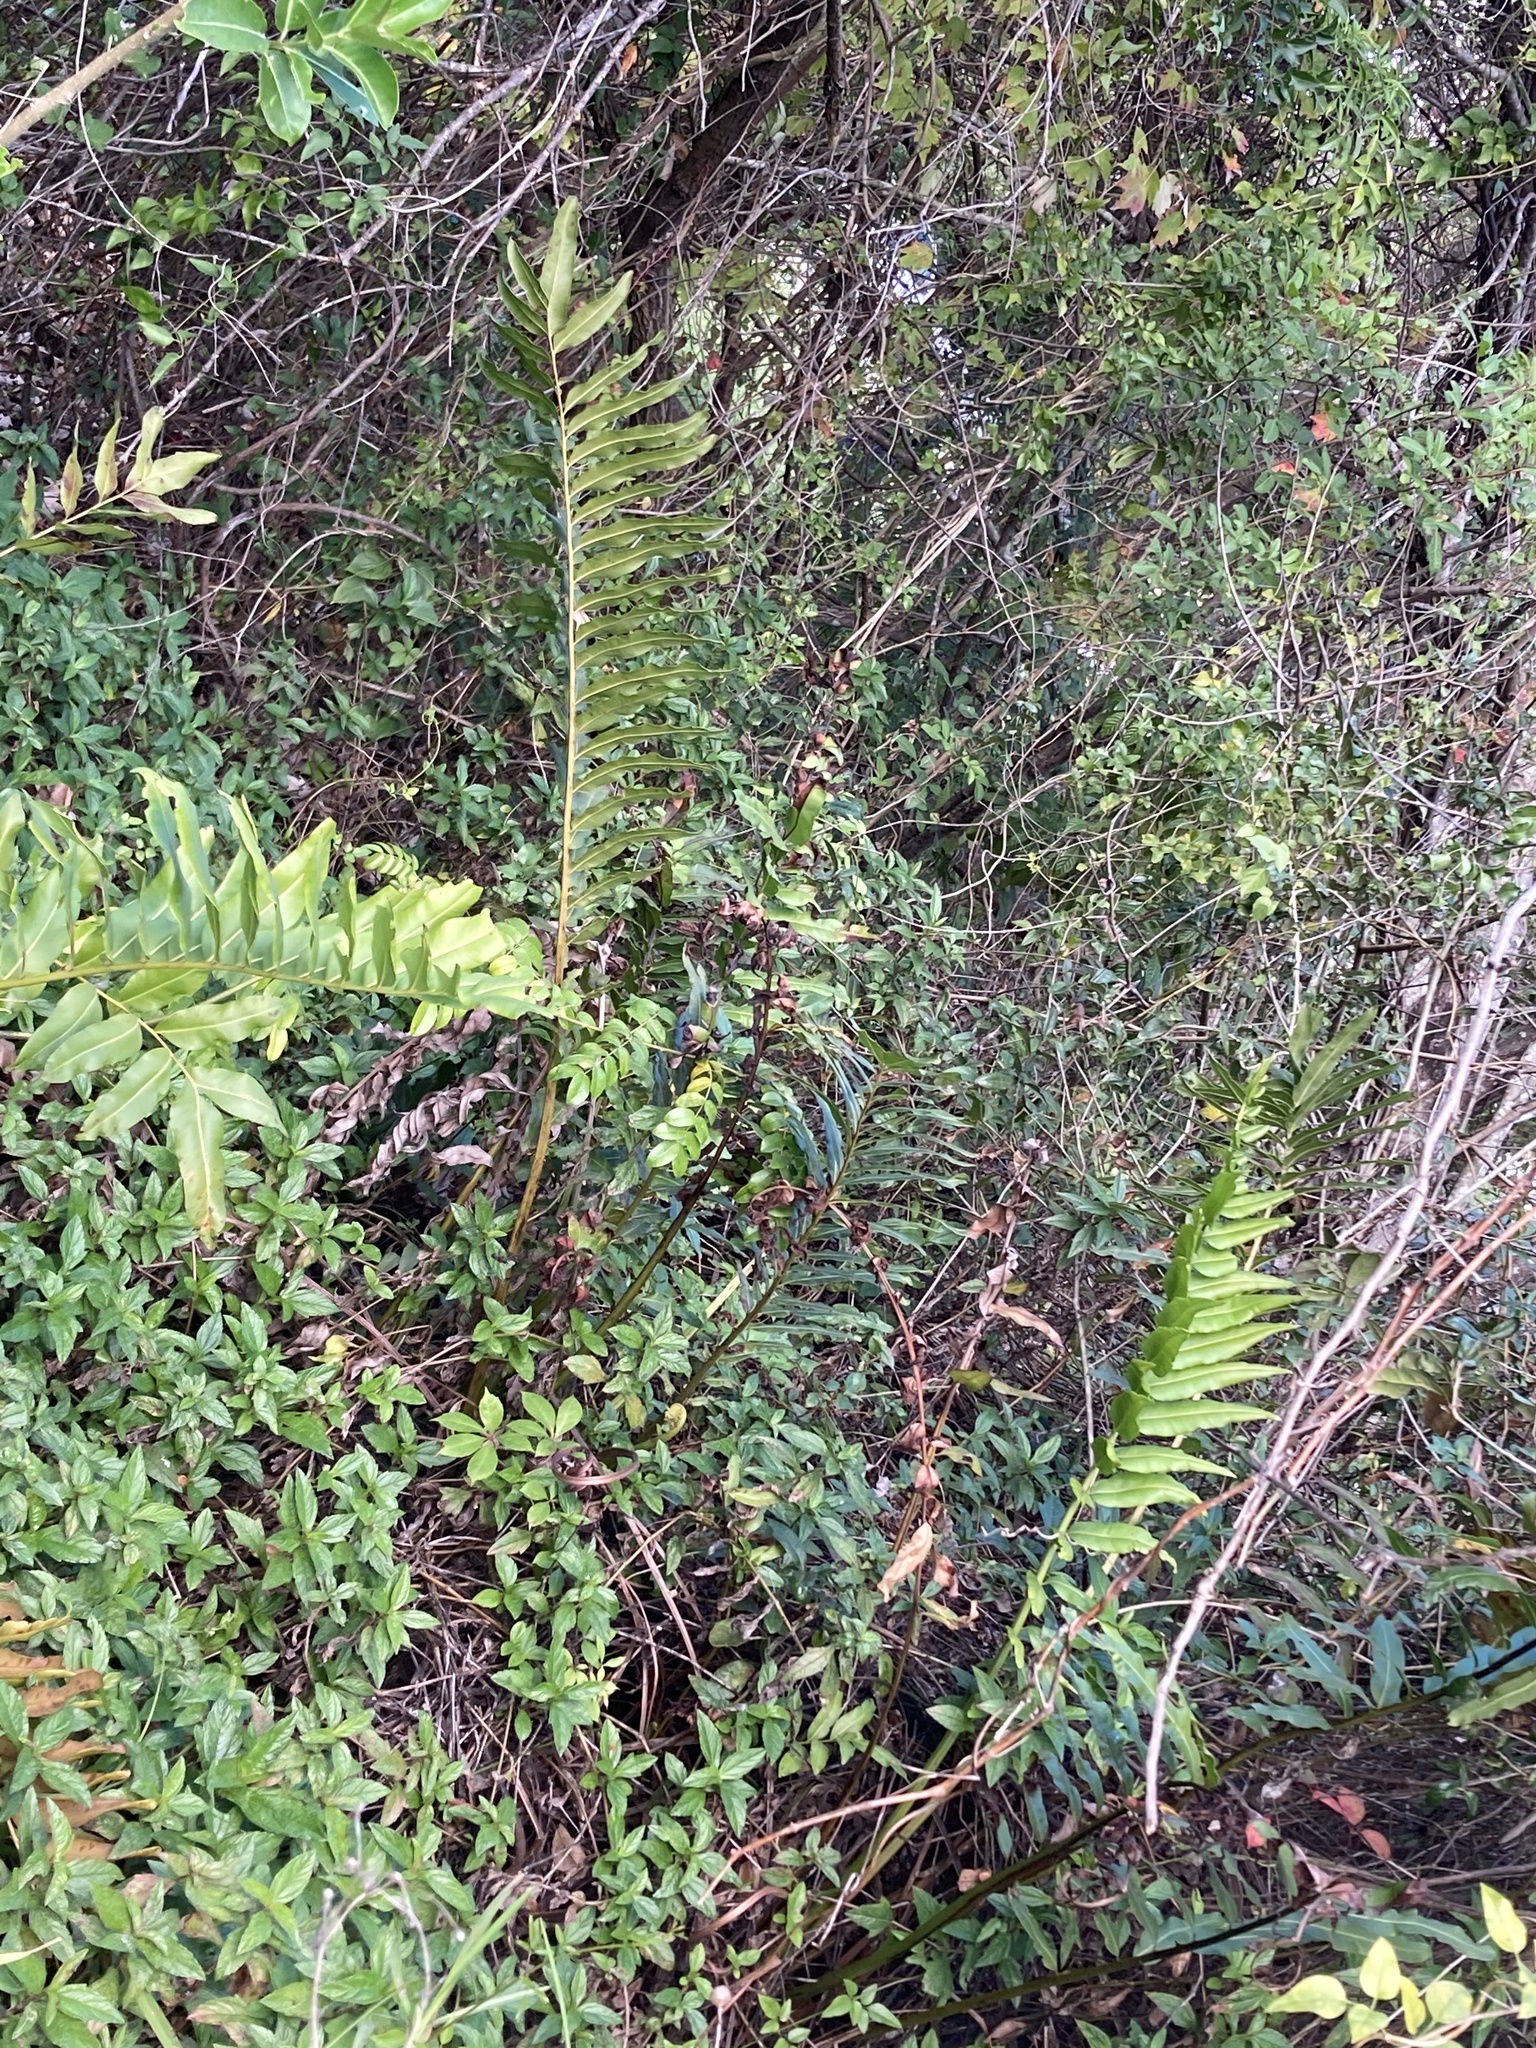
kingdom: Plantae
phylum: Tracheophyta
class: Polypodiopsida
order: Polypodiales
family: Pteridaceae
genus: Acrostichum
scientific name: Acrostichum danaeifolium
